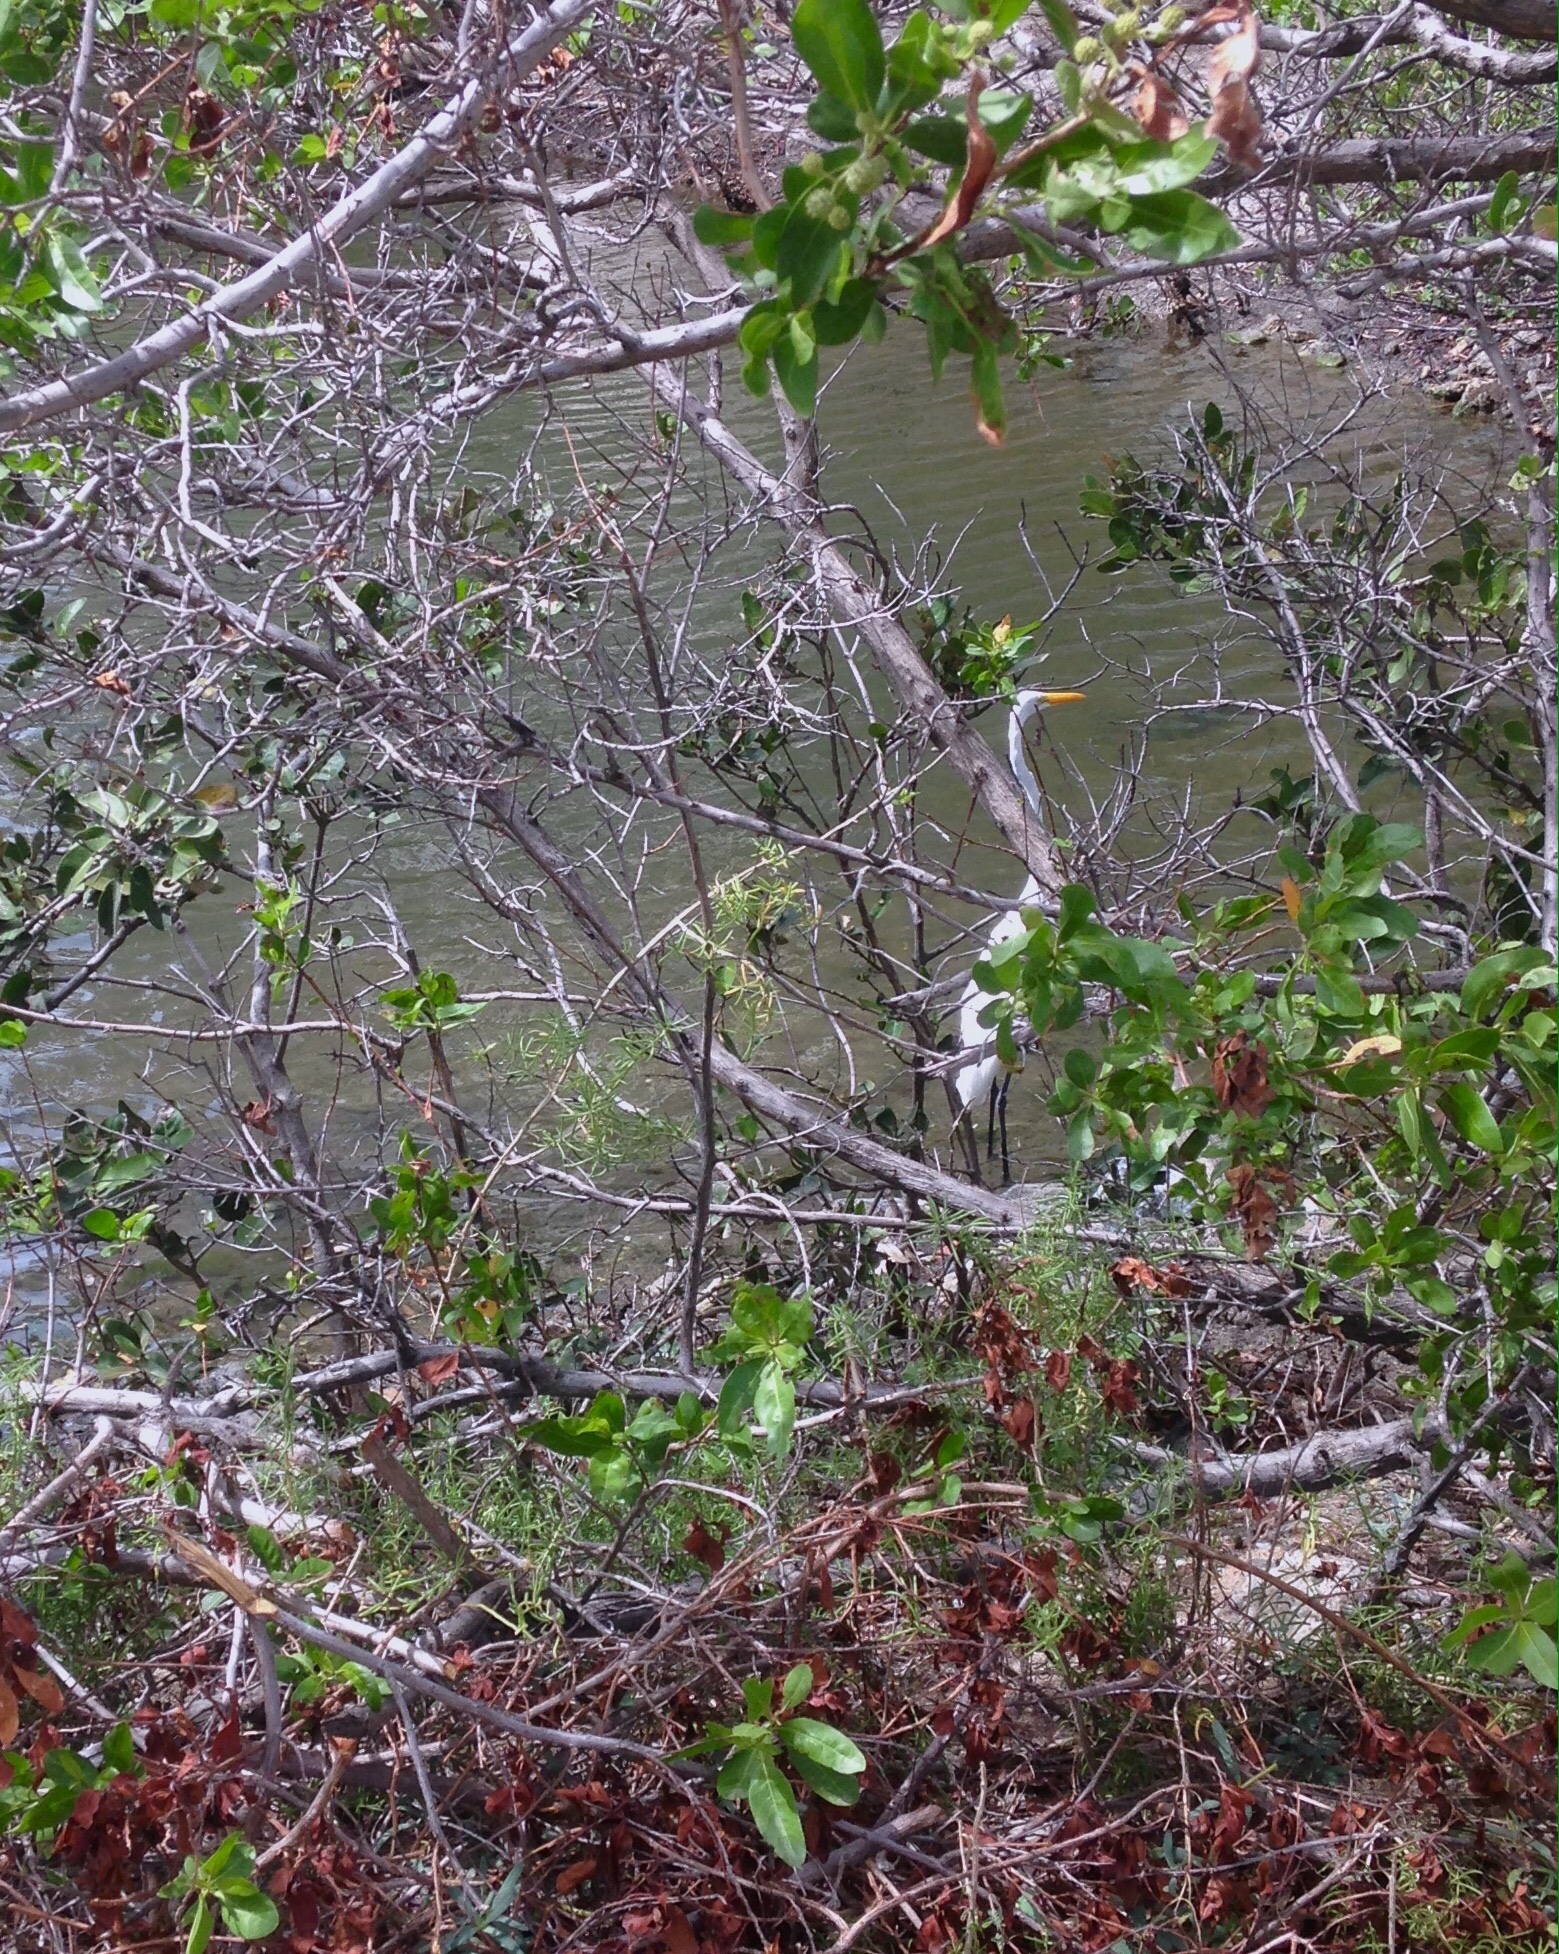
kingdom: Animalia
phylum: Chordata
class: Aves
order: Pelecaniformes
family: Ardeidae
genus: Ardea
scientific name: Ardea alba
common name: Great egret
